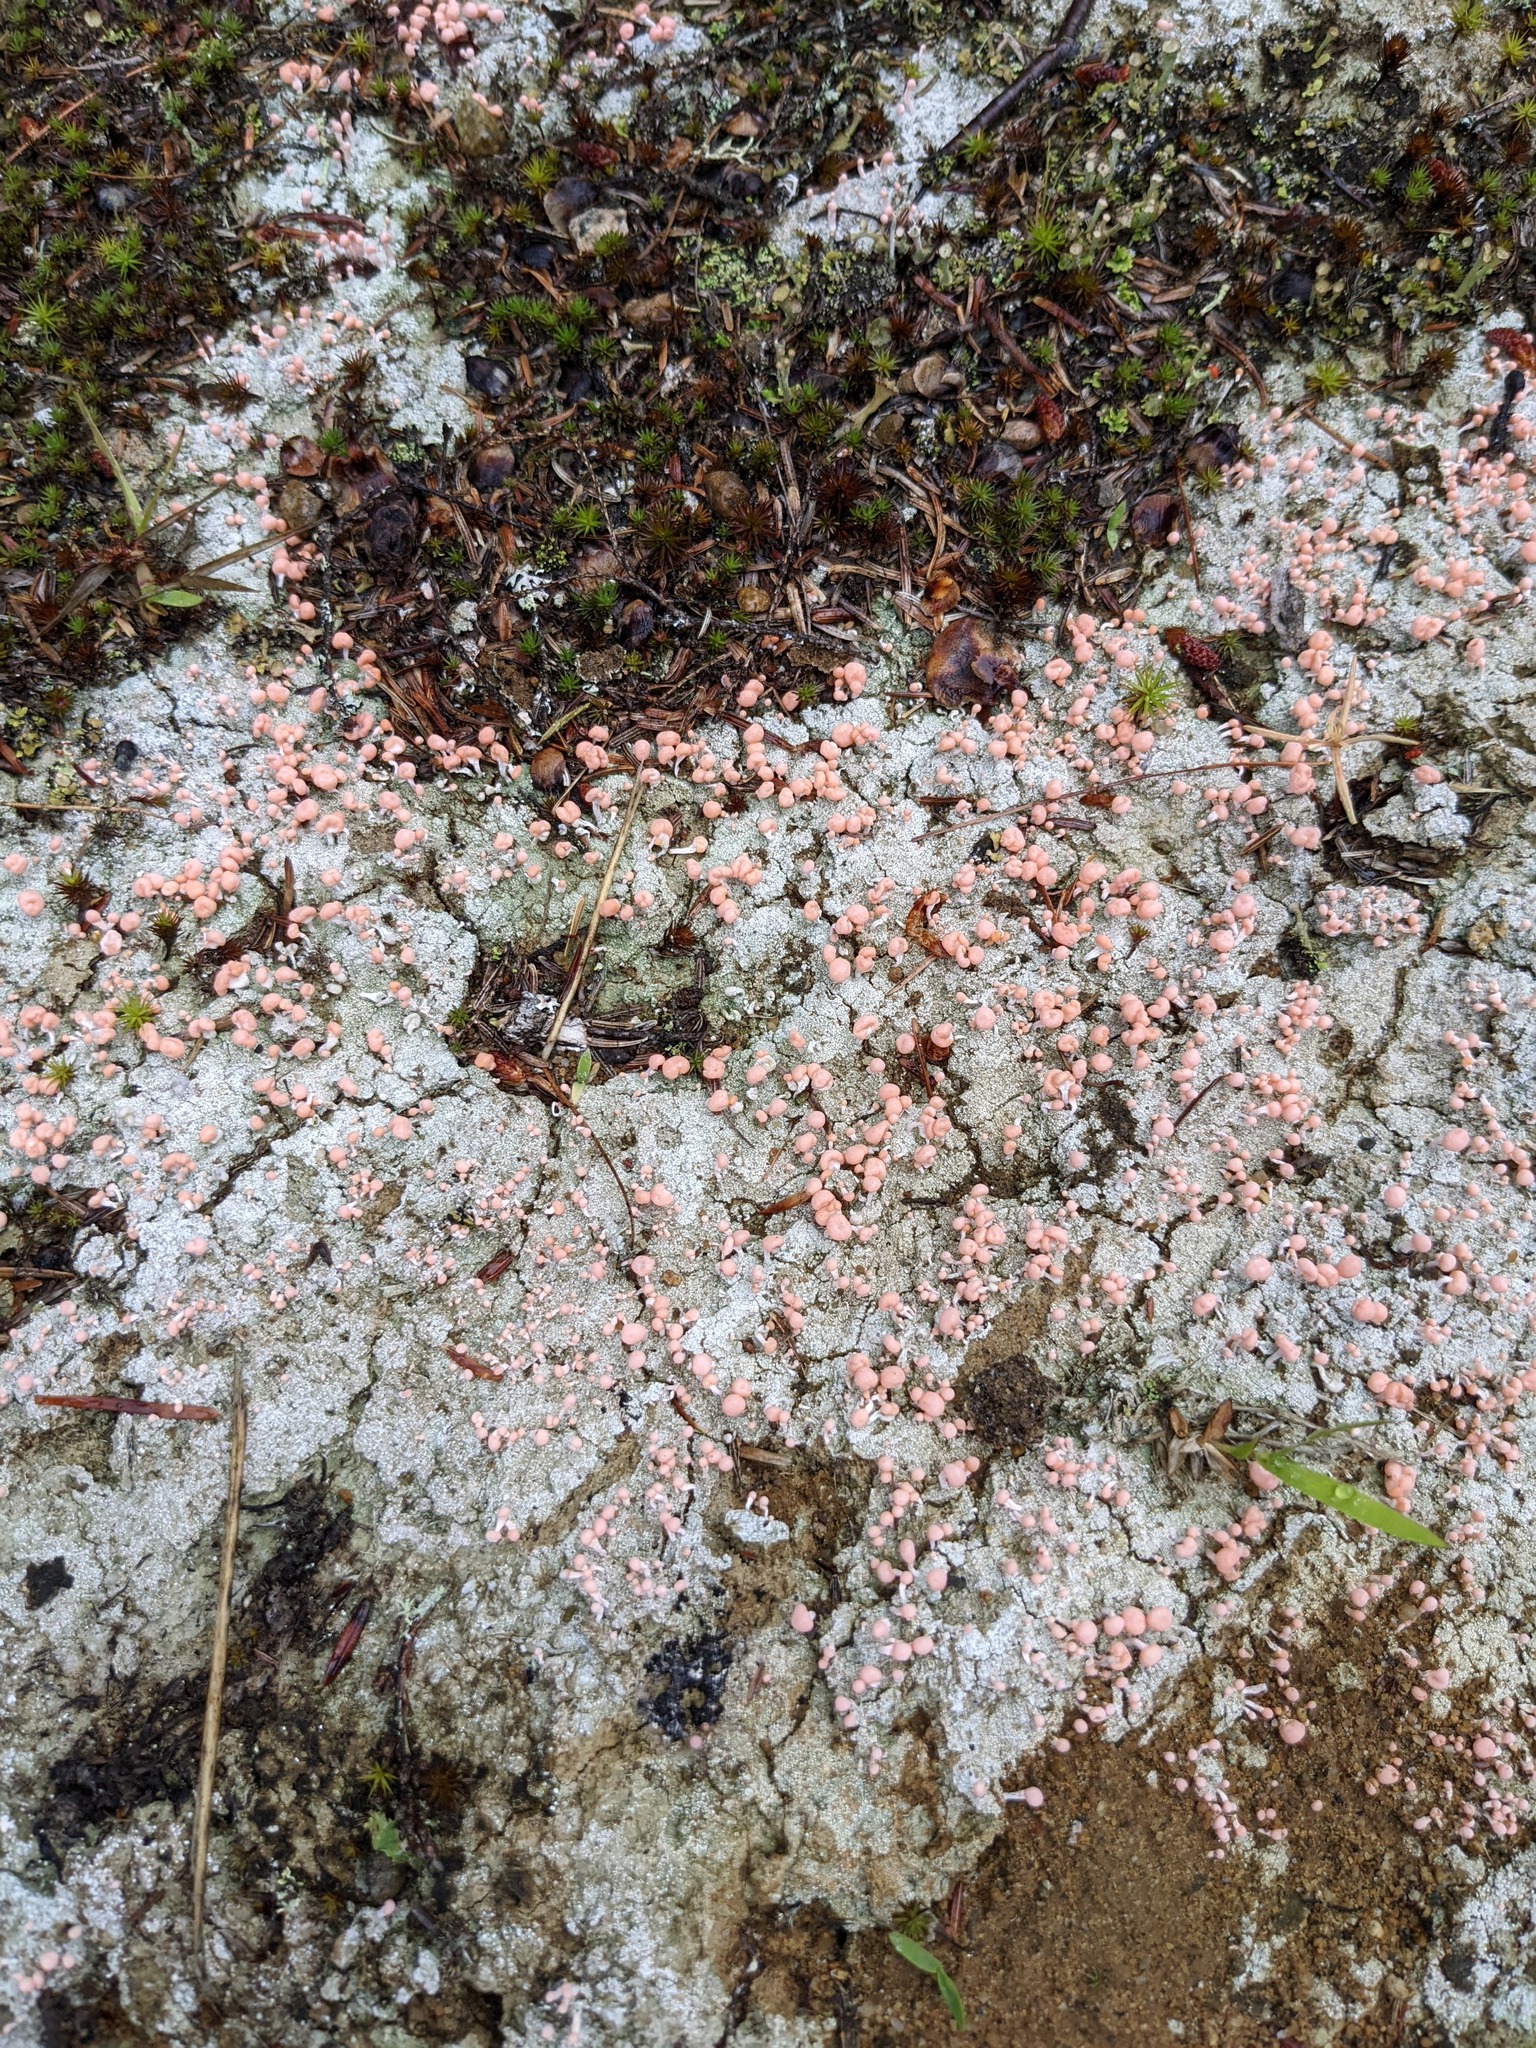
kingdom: Fungi
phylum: Ascomycota
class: Lecanoromycetes
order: Pertusariales
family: Icmadophilaceae
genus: Dibaeis
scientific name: Dibaeis baeomyces
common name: Pink earth lichen
